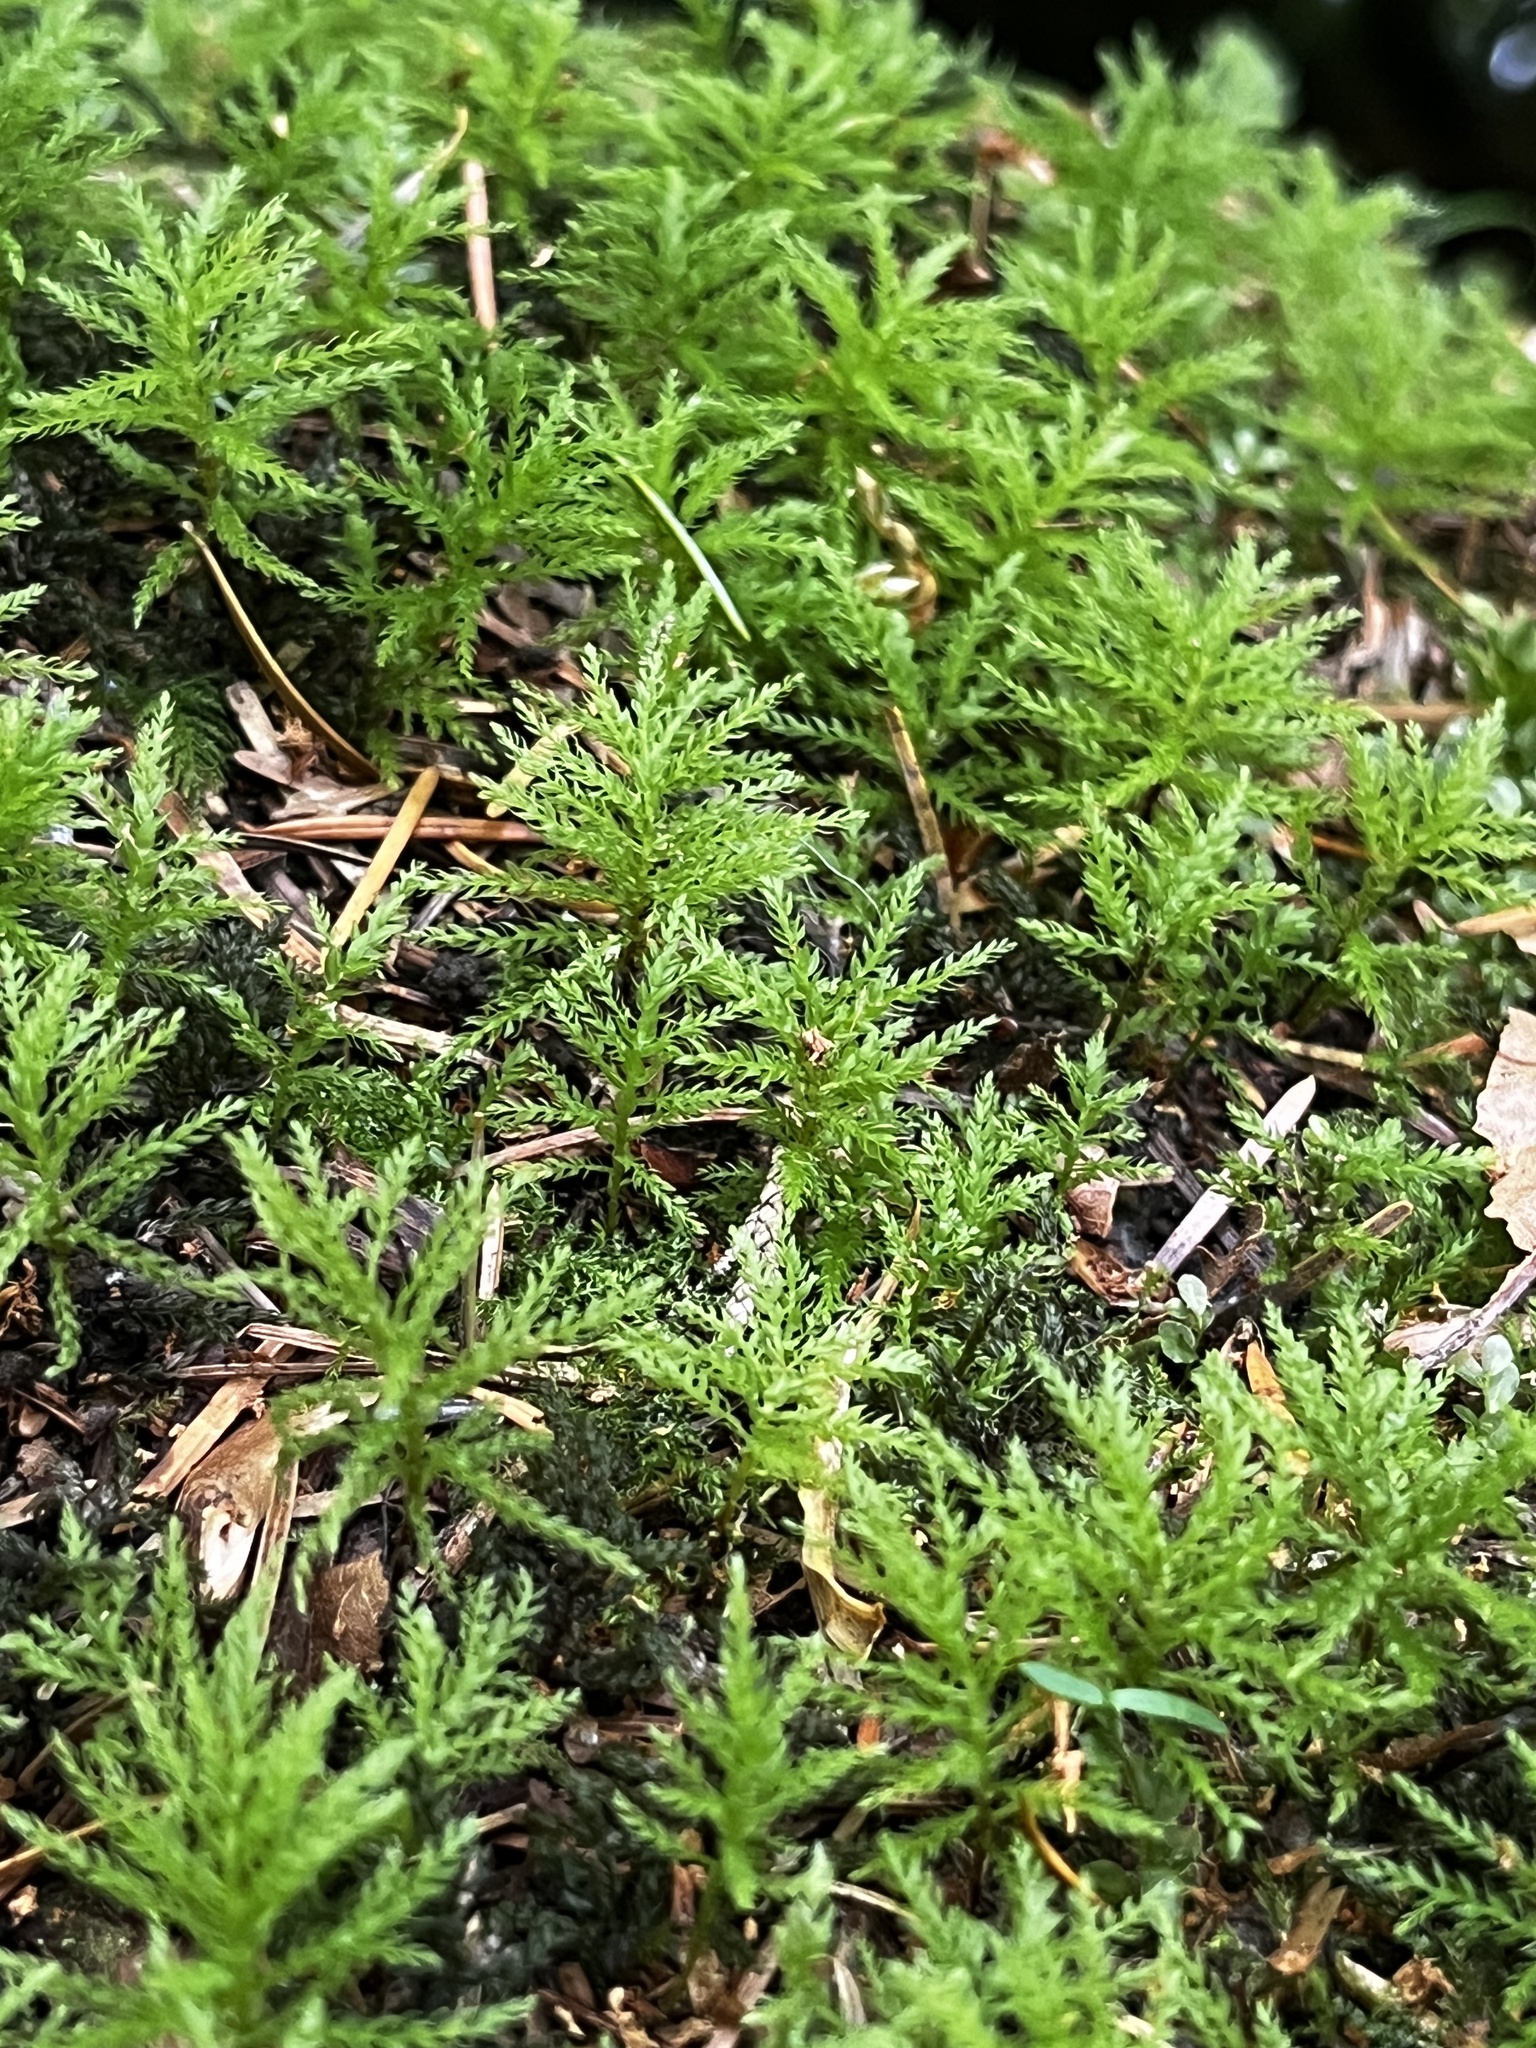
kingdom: Plantae
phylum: Bryophyta
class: Bryopsida
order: Bryales
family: Mniaceae
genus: Leucolepis
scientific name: Leucolepis acanthoneura
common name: Leucolepis umbrella moss
